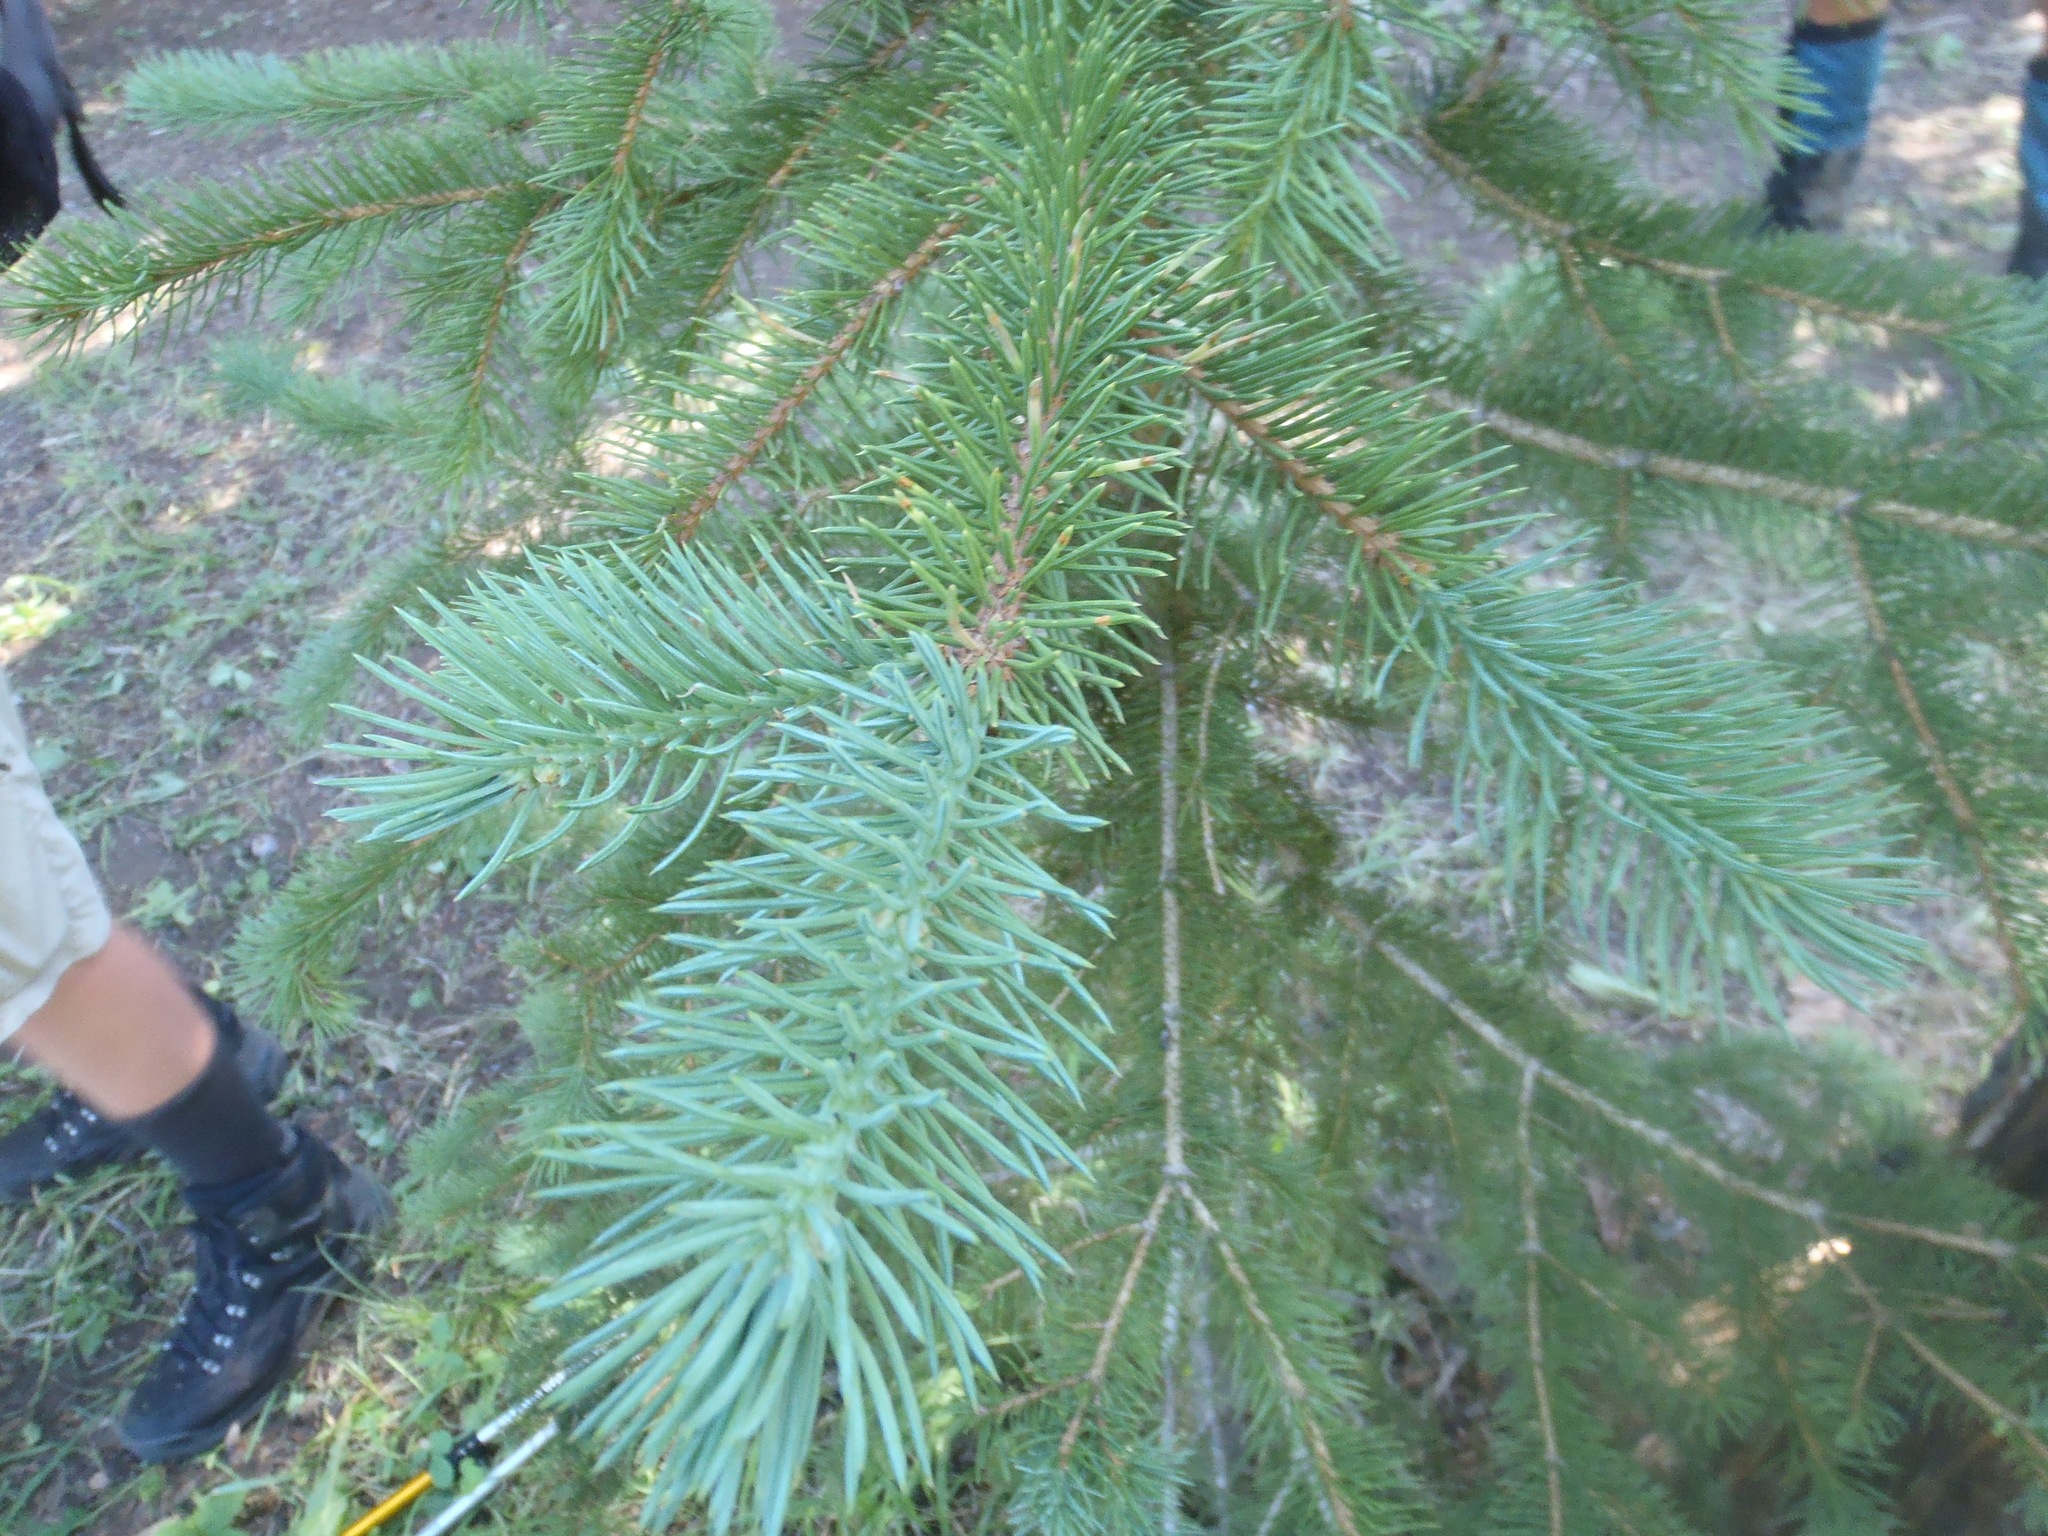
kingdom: Plantae
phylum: Tracheophyta
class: Pinopsida
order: Pinales
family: Pinaceae
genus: Picea
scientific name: Picea engelmannii
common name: Engelmann spruce
